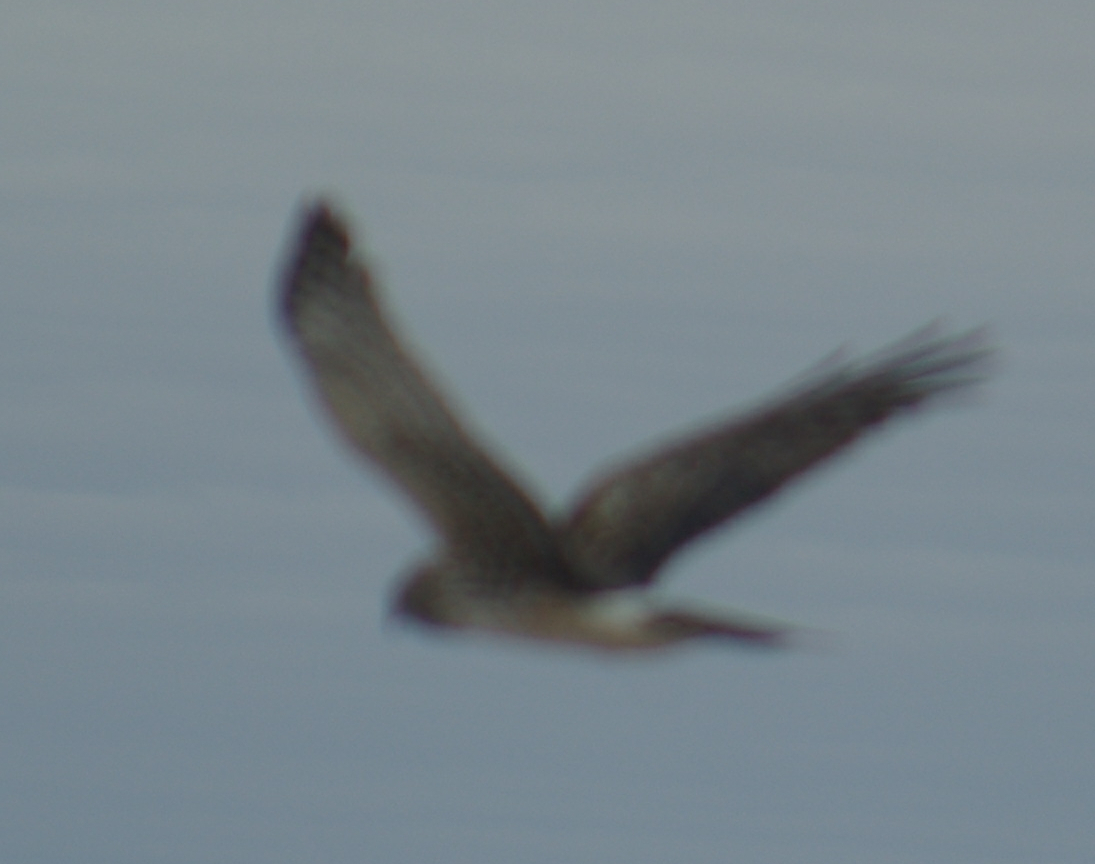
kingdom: Animalia
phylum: Chordata
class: Aves
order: Accipitriformes
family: Accipitridae
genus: Circus
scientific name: Circus cyaneus
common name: Hen harrier
